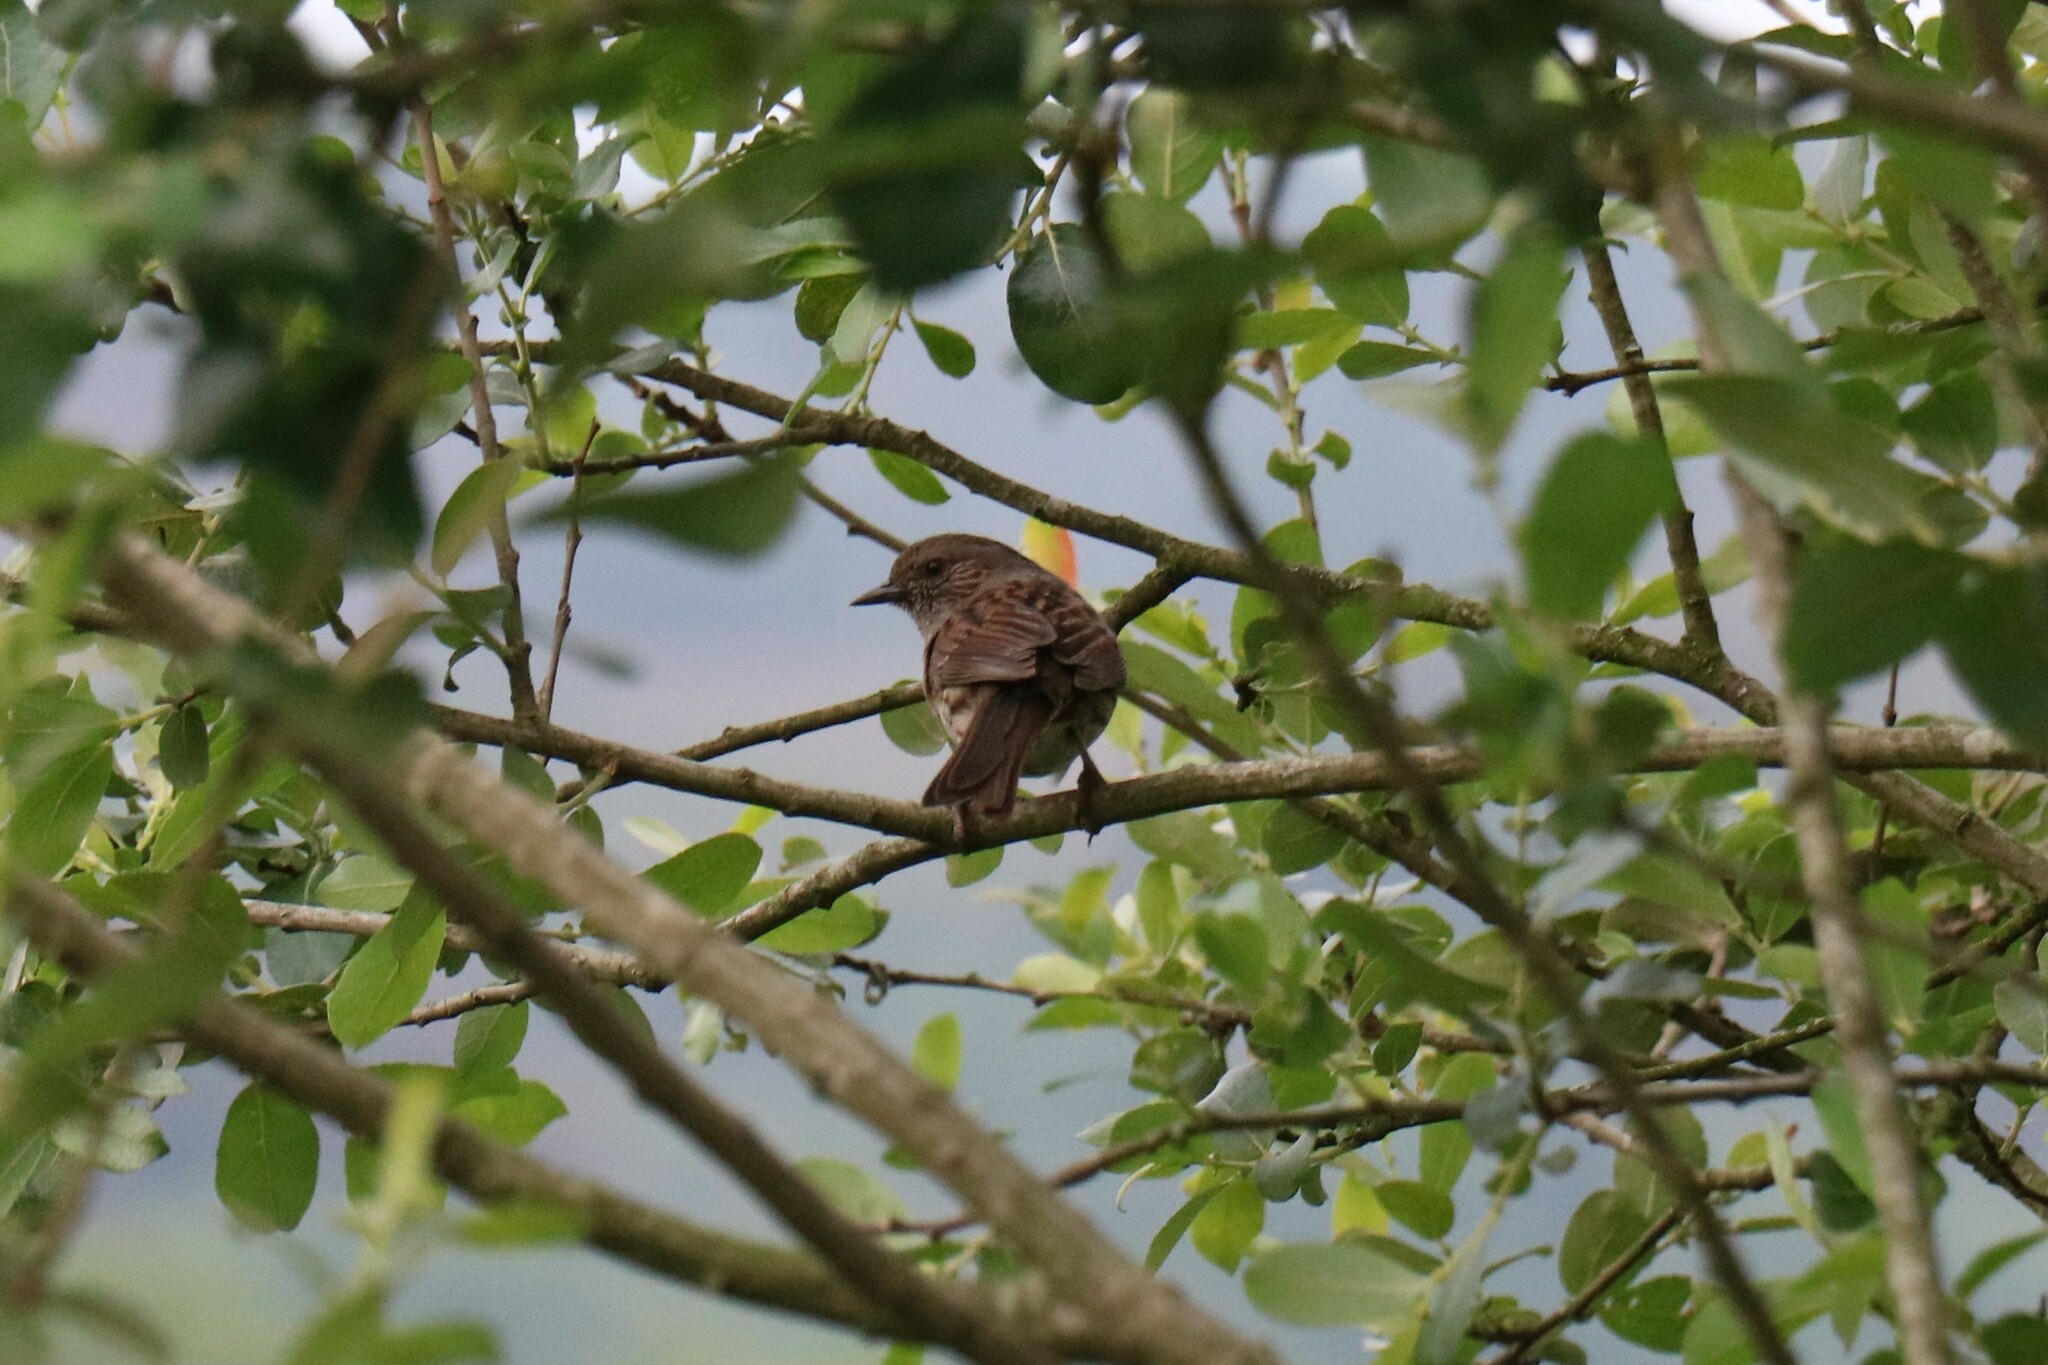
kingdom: Animalia
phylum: Chordata
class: Aves
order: Passeriformes
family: Prunellidae
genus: Prunella
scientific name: Prunella modularis
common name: Dunnock
